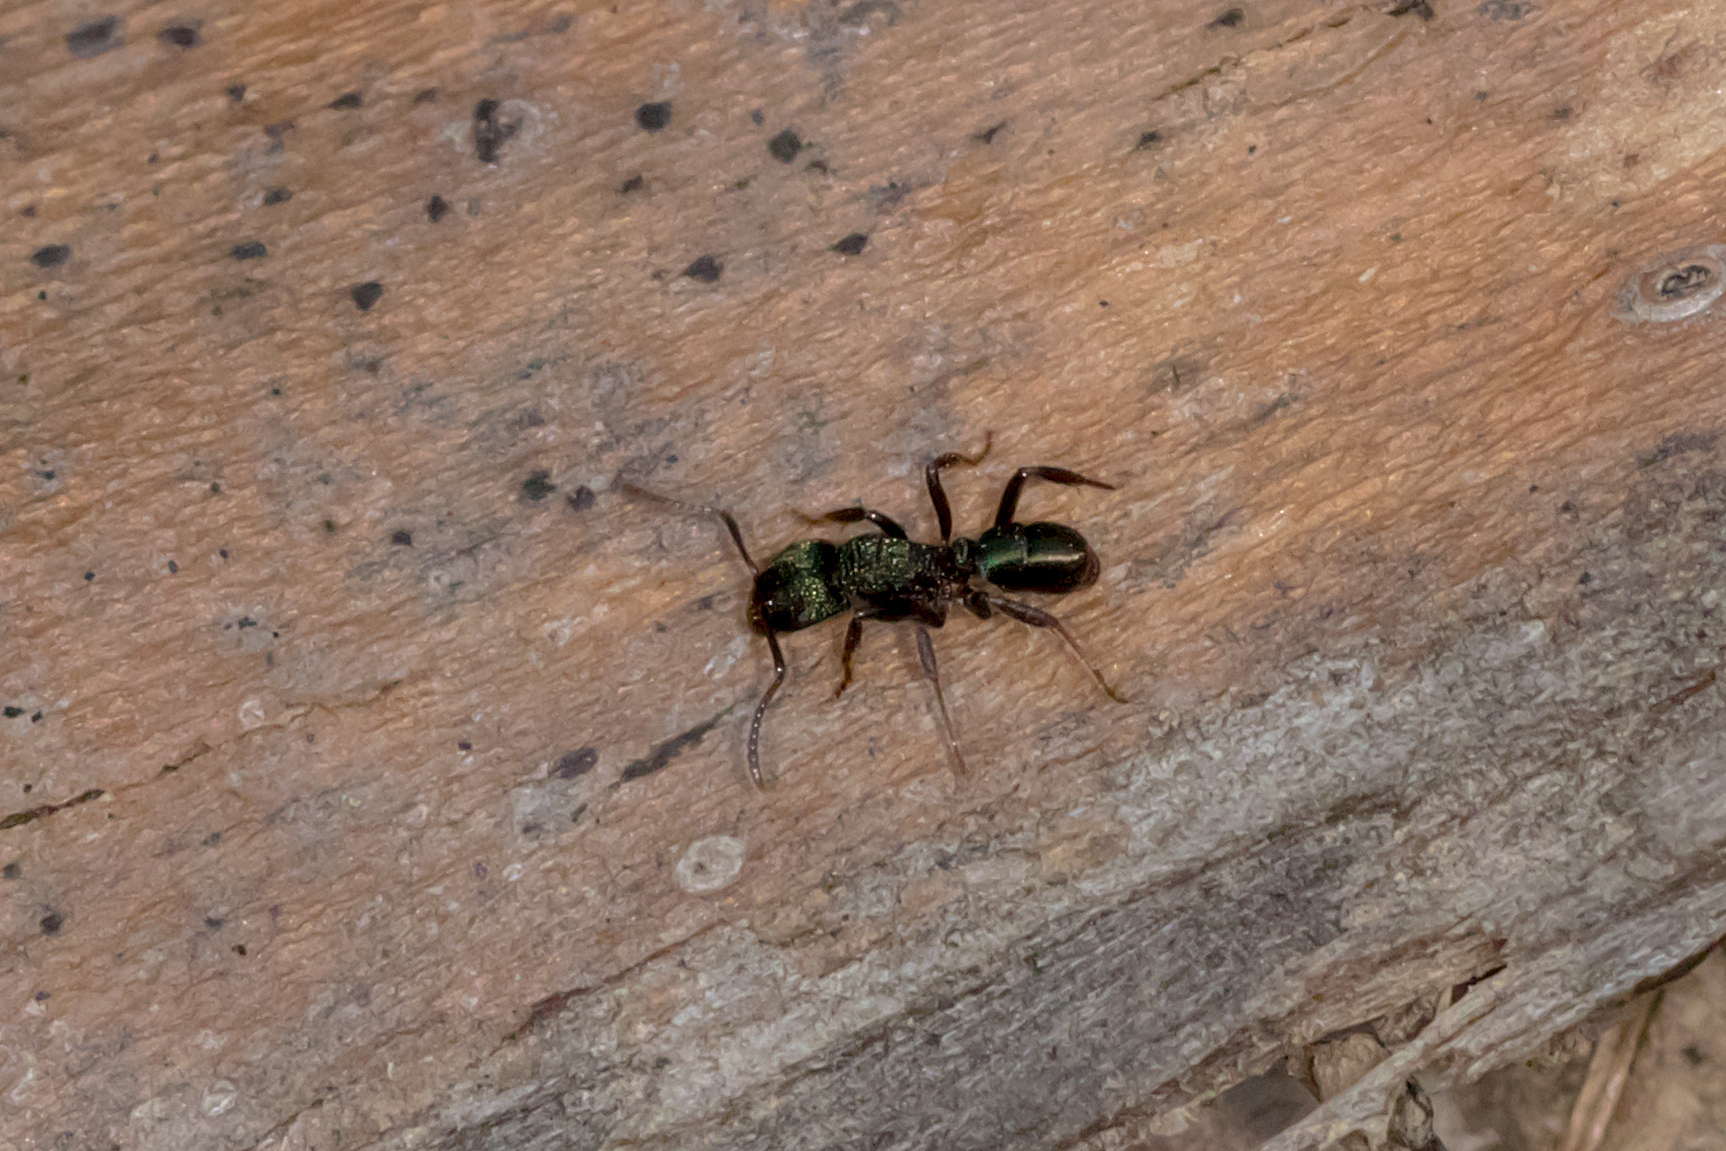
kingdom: Animalia
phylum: Arthropoda
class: Insecta
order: Hymenoptera
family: Formicidae
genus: Rhytidoponera
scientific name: Rhytidoponera metallica
